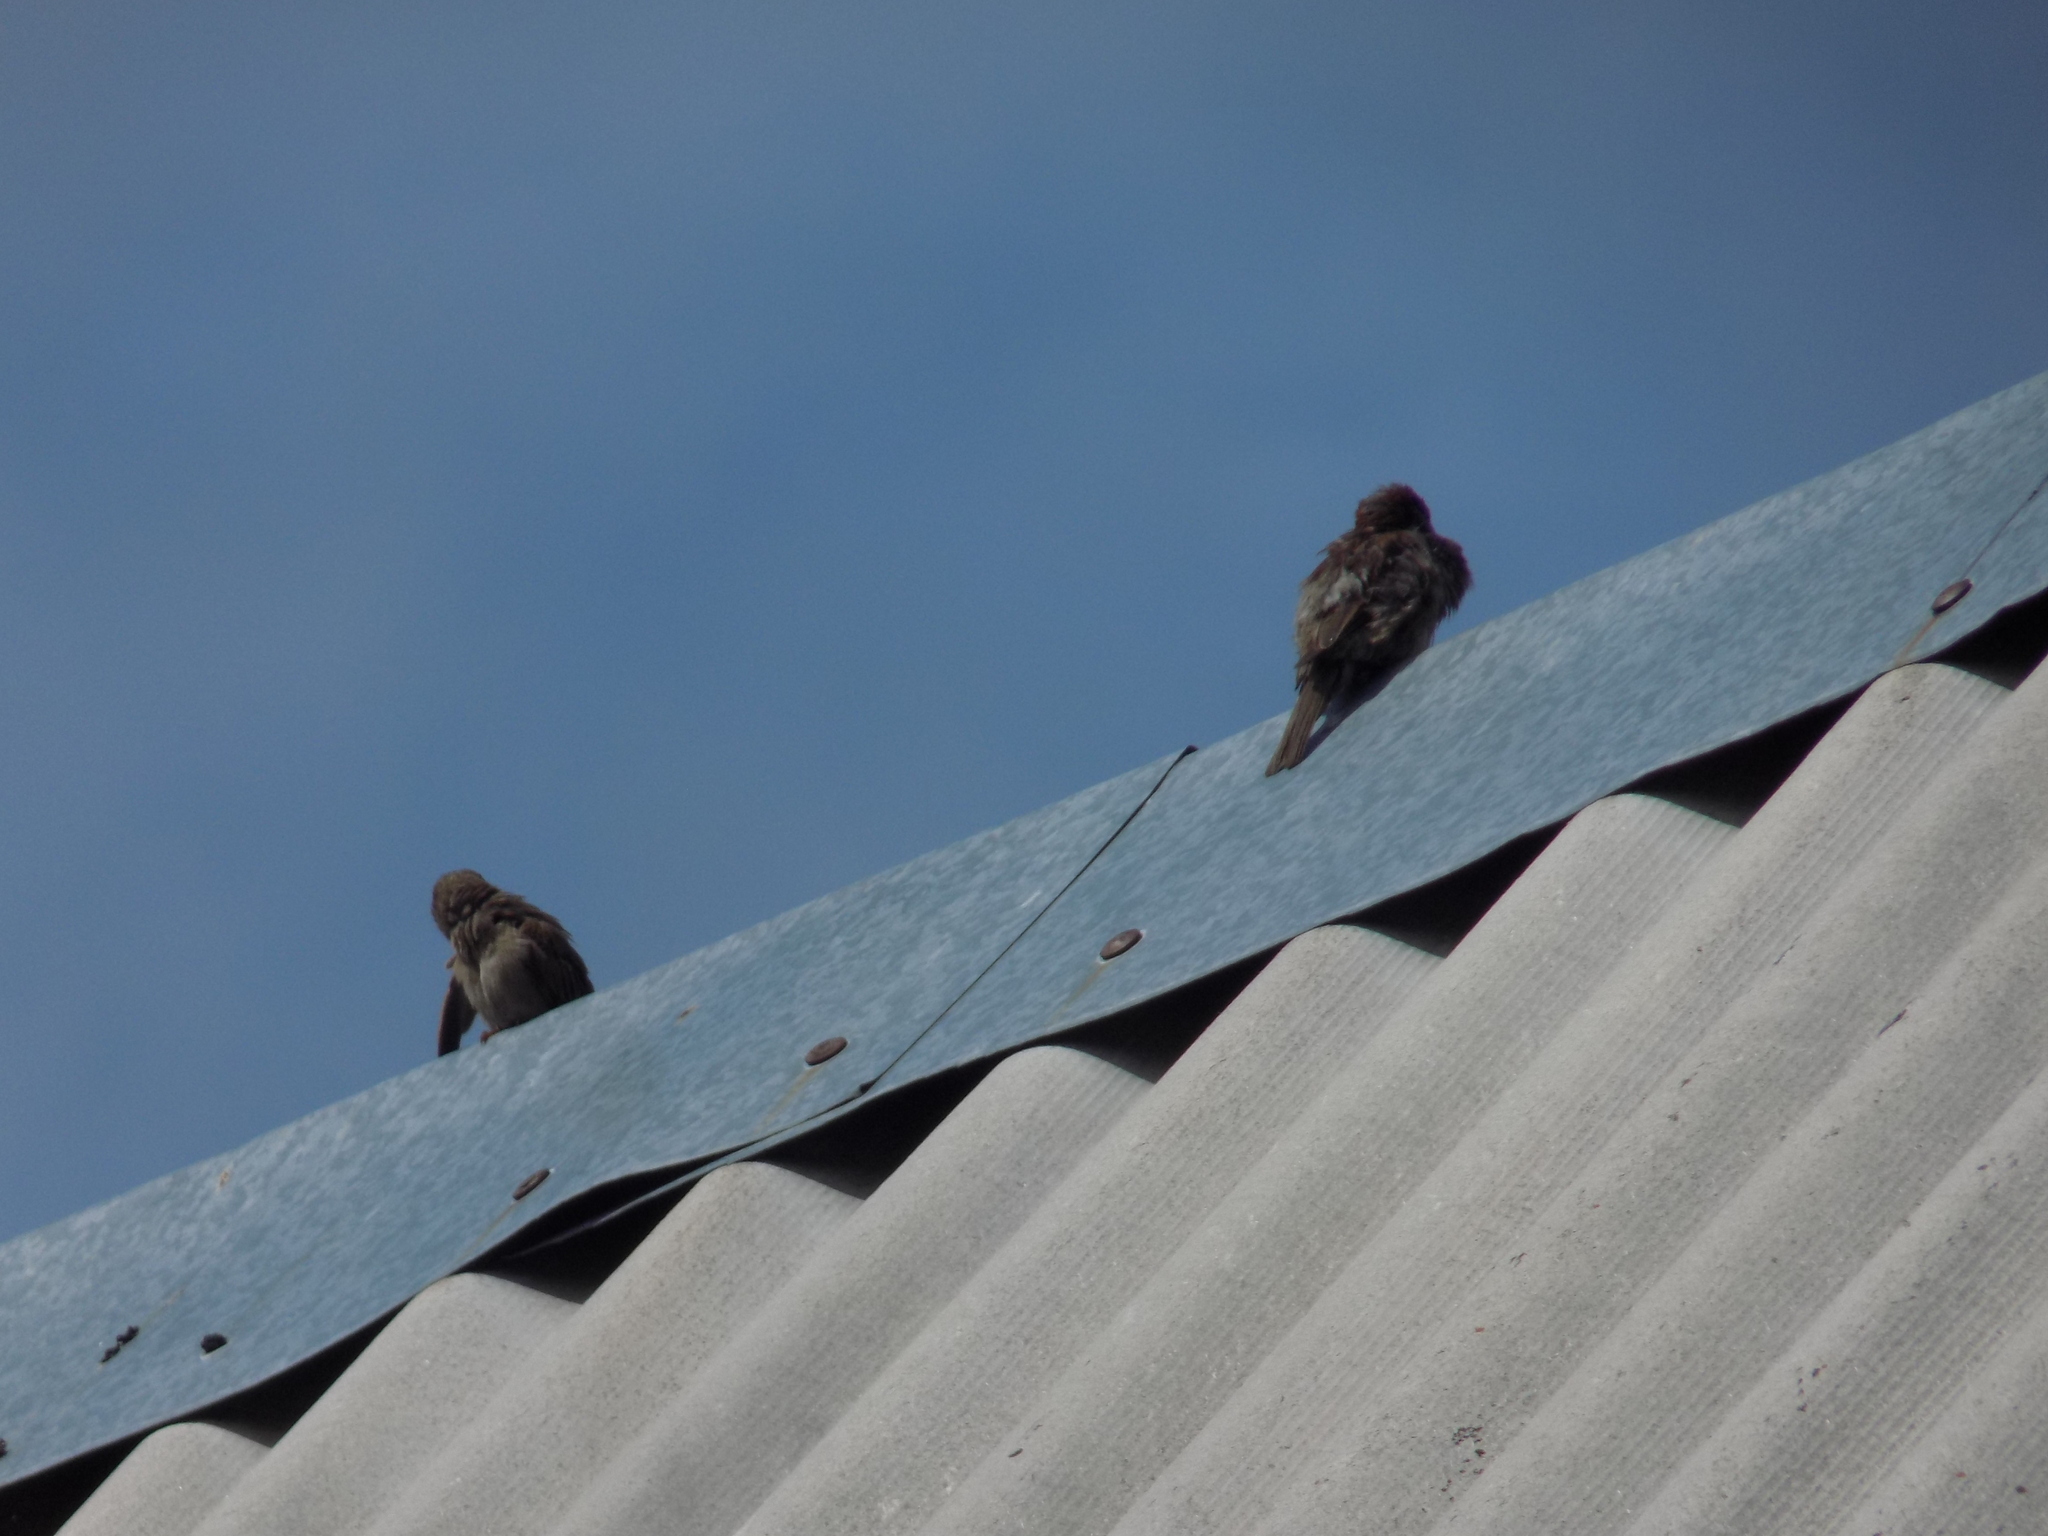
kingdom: Animalia
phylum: Chordata
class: Aves
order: Passeriformes
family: Passeridae
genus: Passer
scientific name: Passer domesticus
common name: House sparrow
